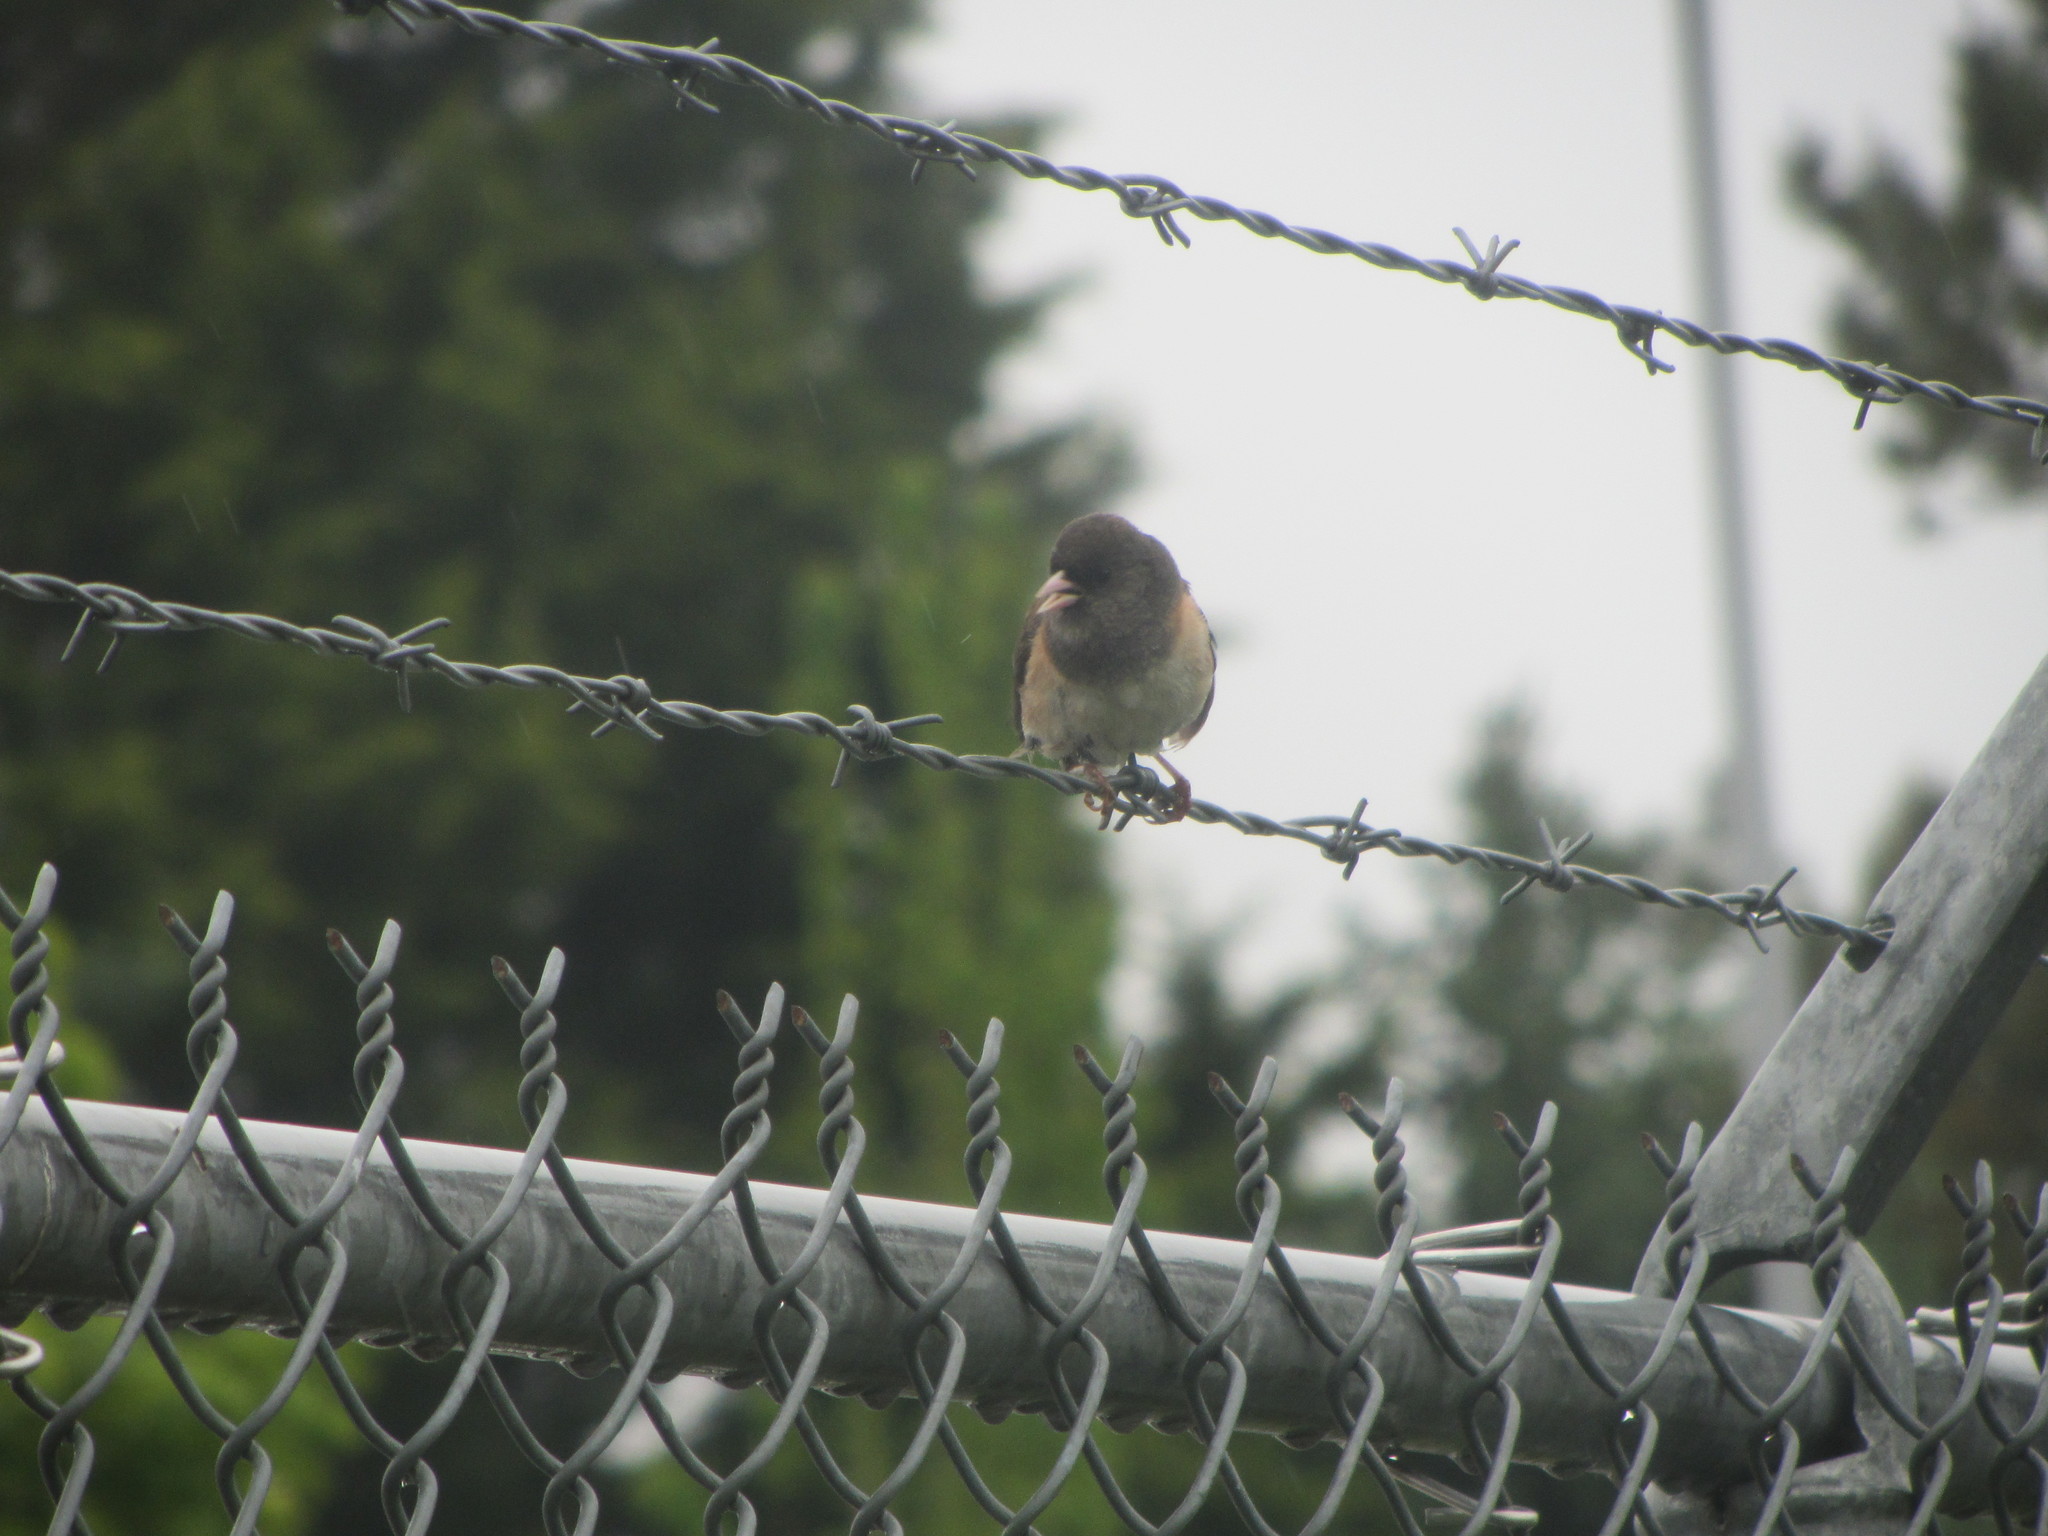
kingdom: Animalia
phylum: Chordata
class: Aves
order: Passeriformes
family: Passerellidae
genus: Junco
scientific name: Junco hyemalis
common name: Dark-eyed junco
